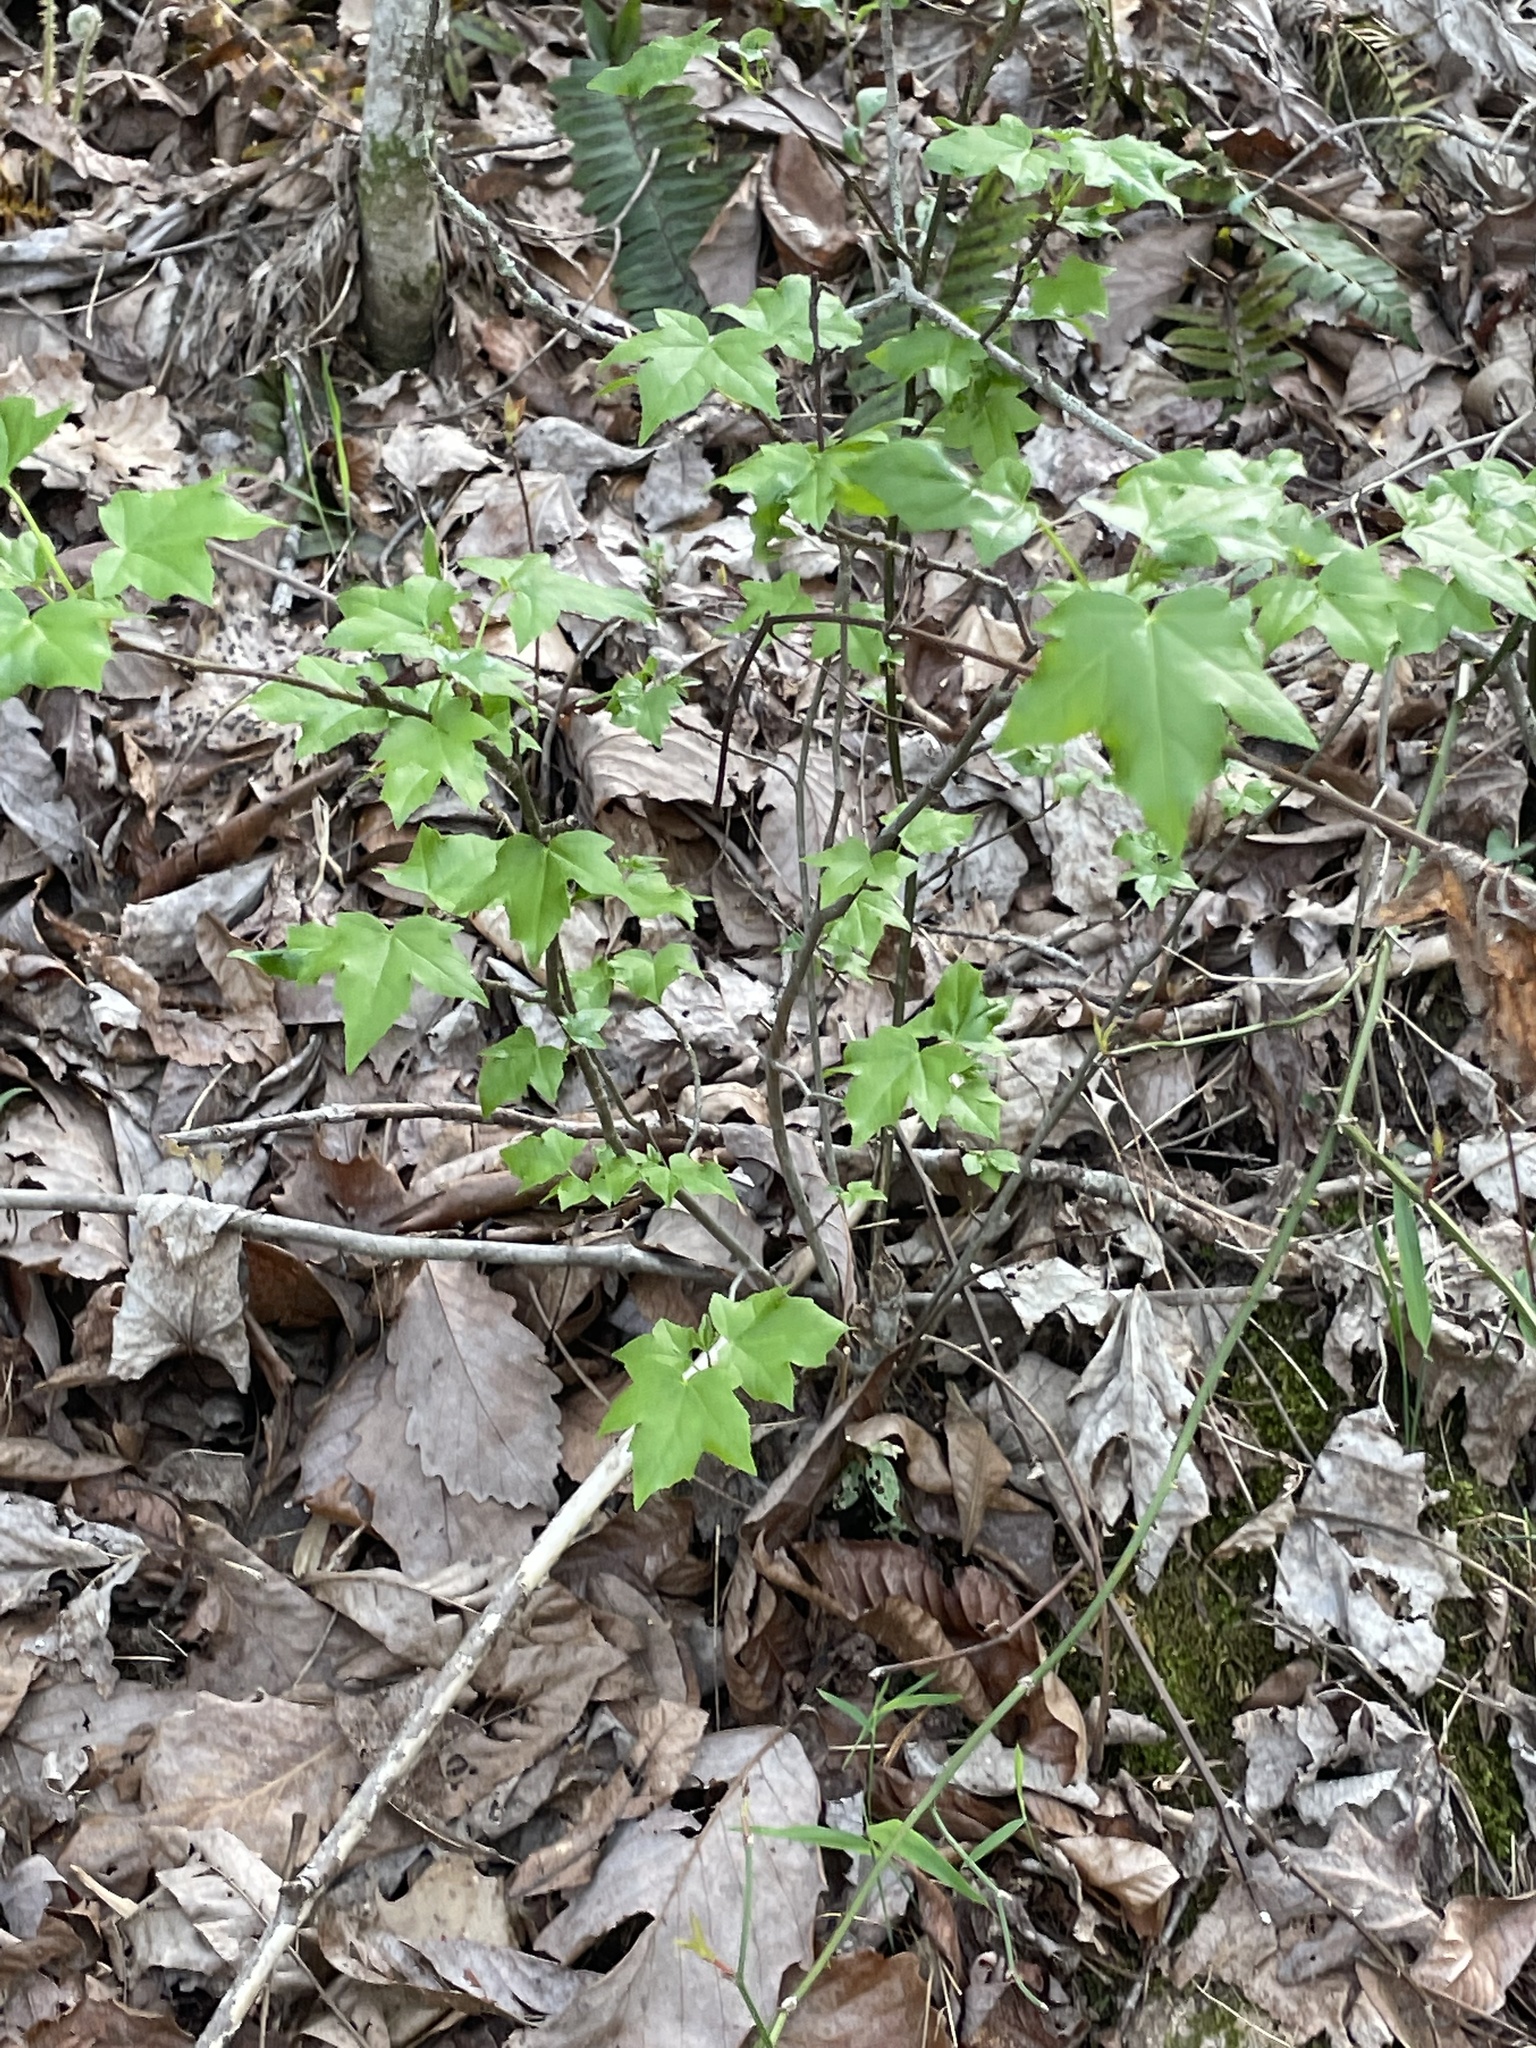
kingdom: Plantae
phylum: Tracheophyta
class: Magnoliopsida
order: Saxifragales
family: Altingiaceae
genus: Liquidambar
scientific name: Liquidambar styraciflua
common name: Sweet gum
